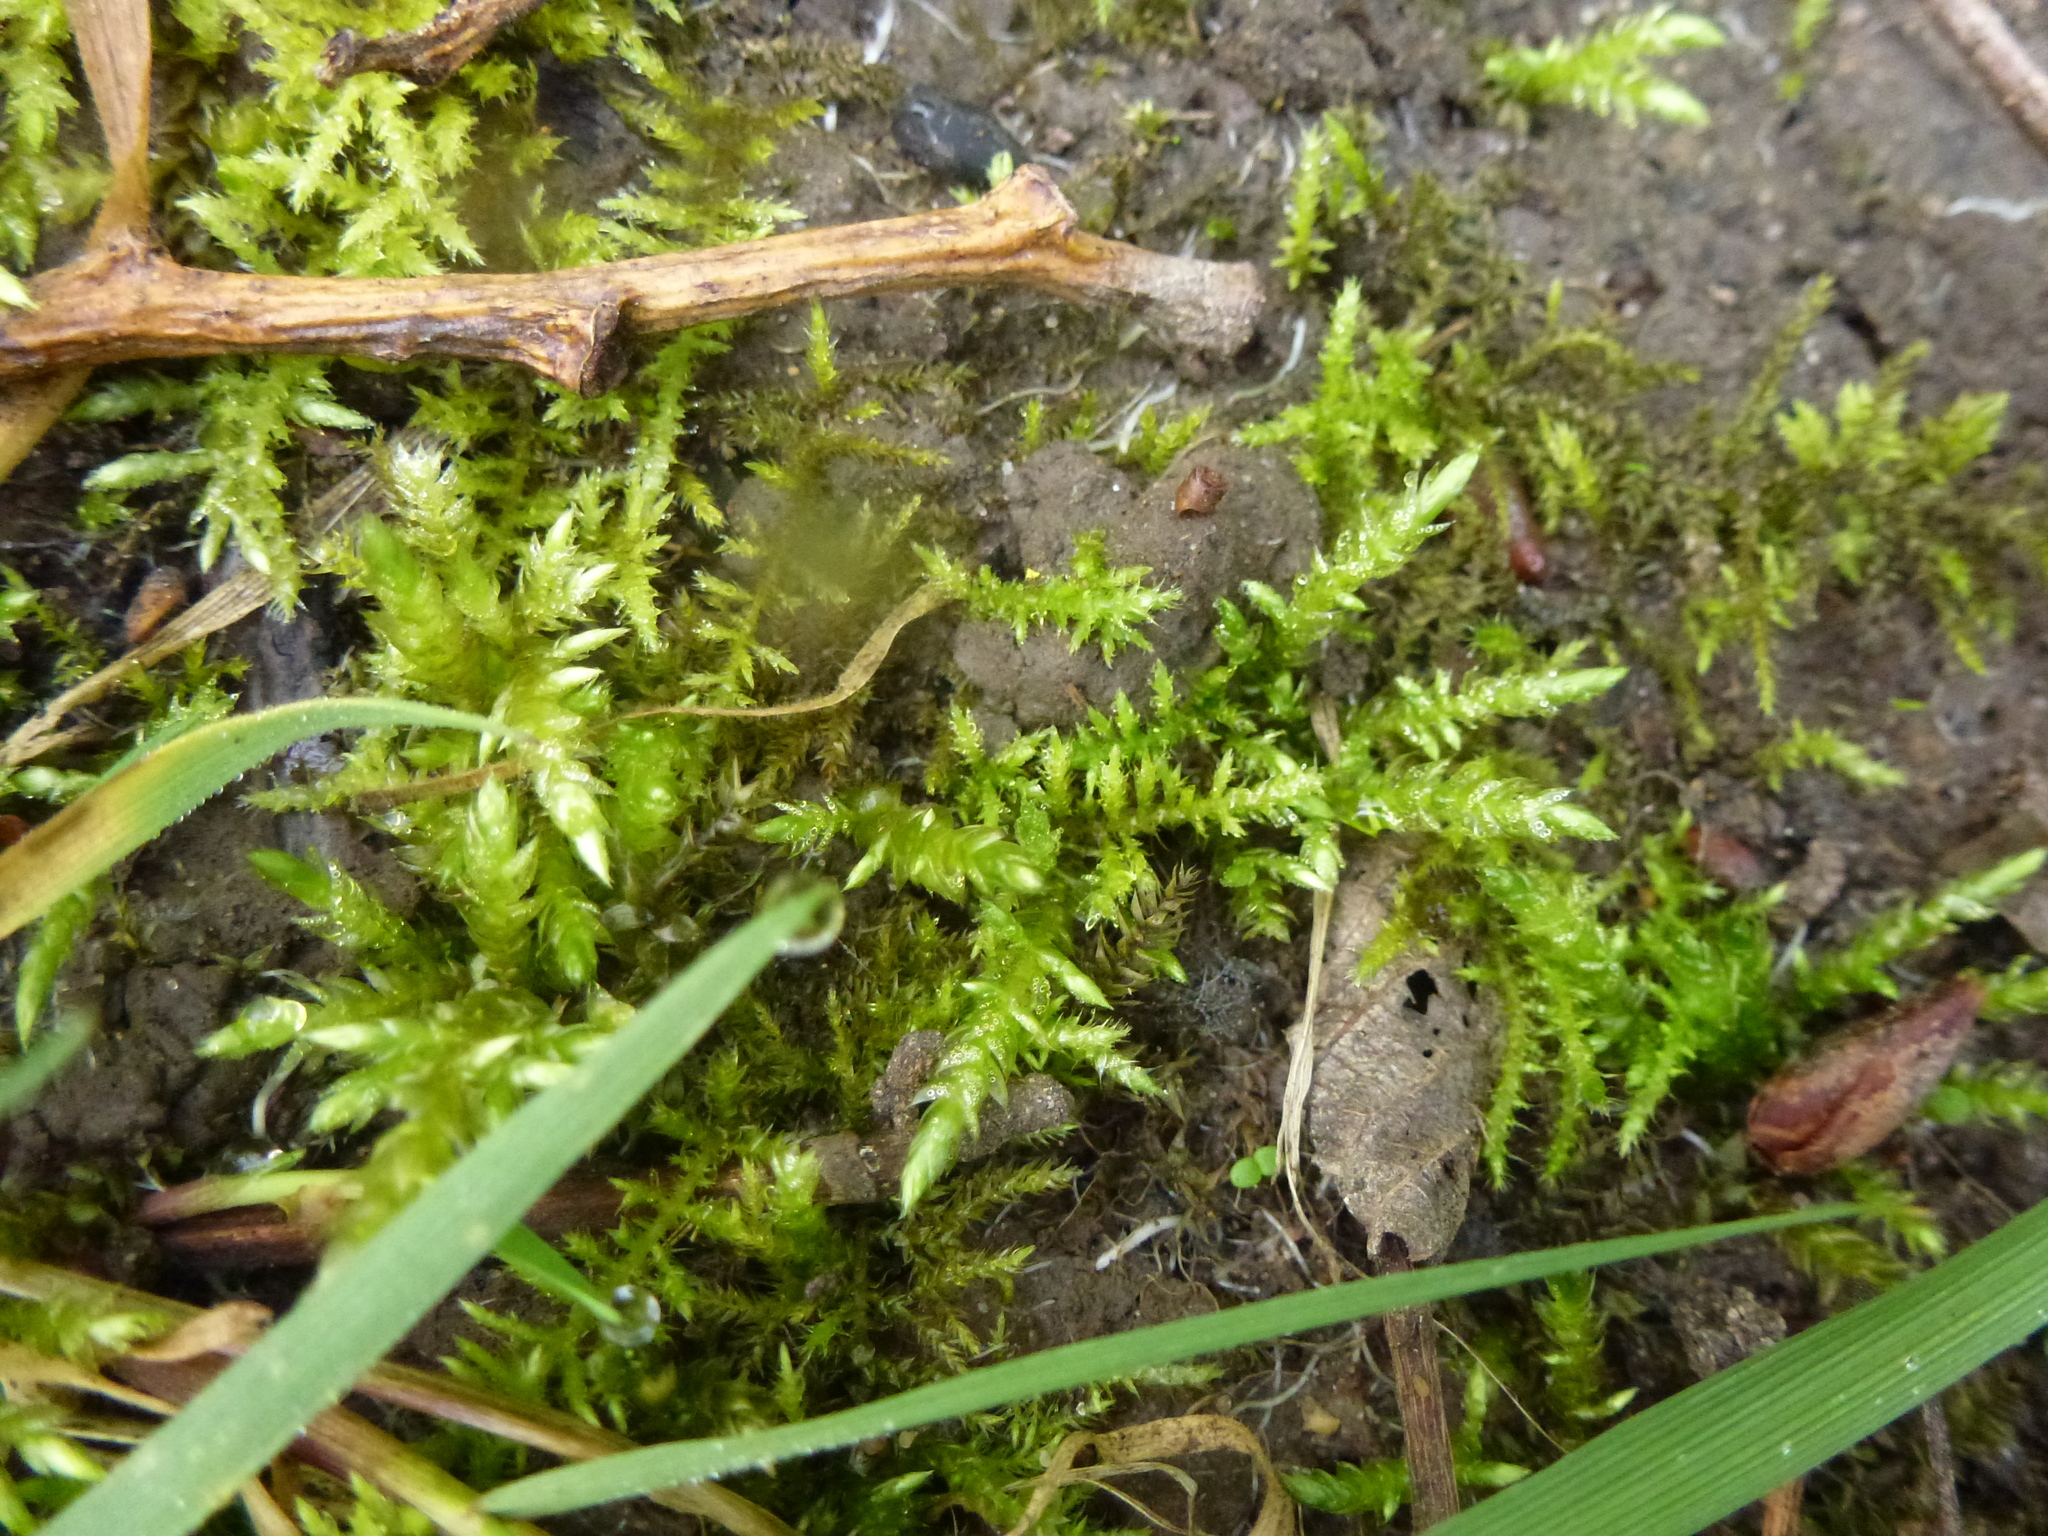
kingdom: Plantae
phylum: Bryophyta
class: Bryopsida
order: Hypnales
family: Brachytheciaceae
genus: Kindbergia
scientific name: Kindbergia praelonga
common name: Slender beaked moss
